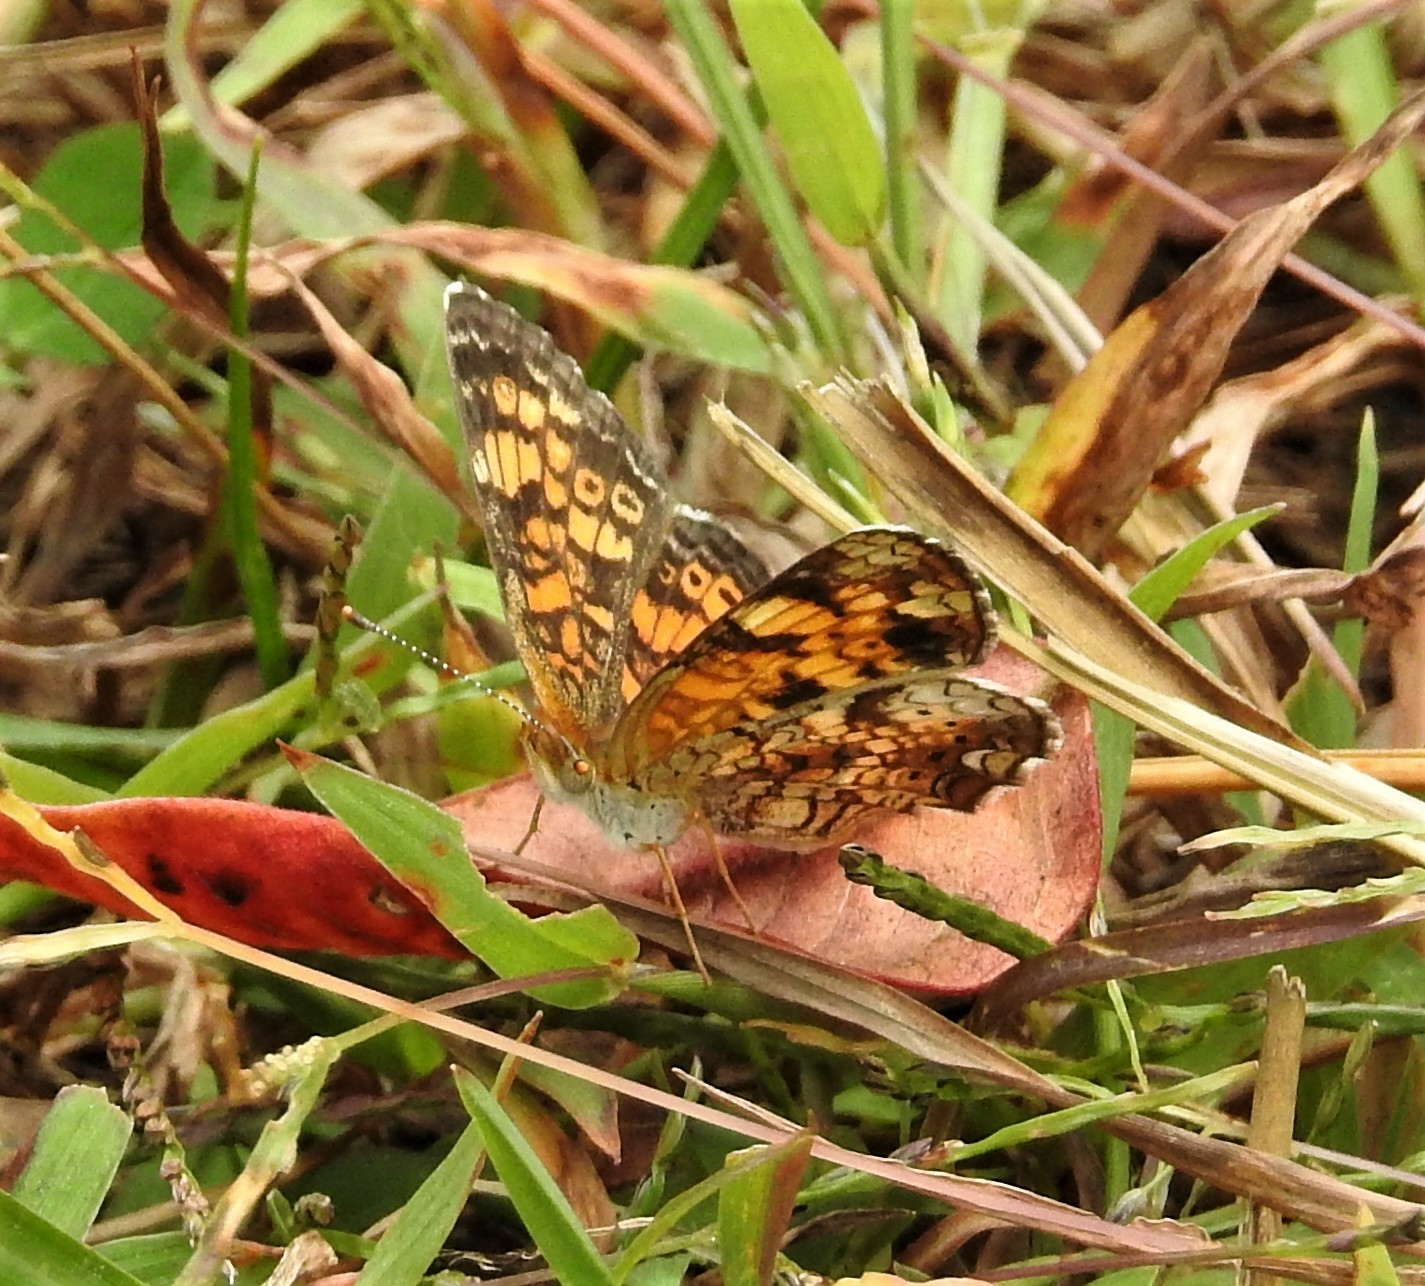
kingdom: Animalia
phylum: Arthropoda
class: Insecta
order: Lepidoptera
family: Nymphalidae
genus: Phyciodes
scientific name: Phyciodes tharos
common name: Pearl crescent
